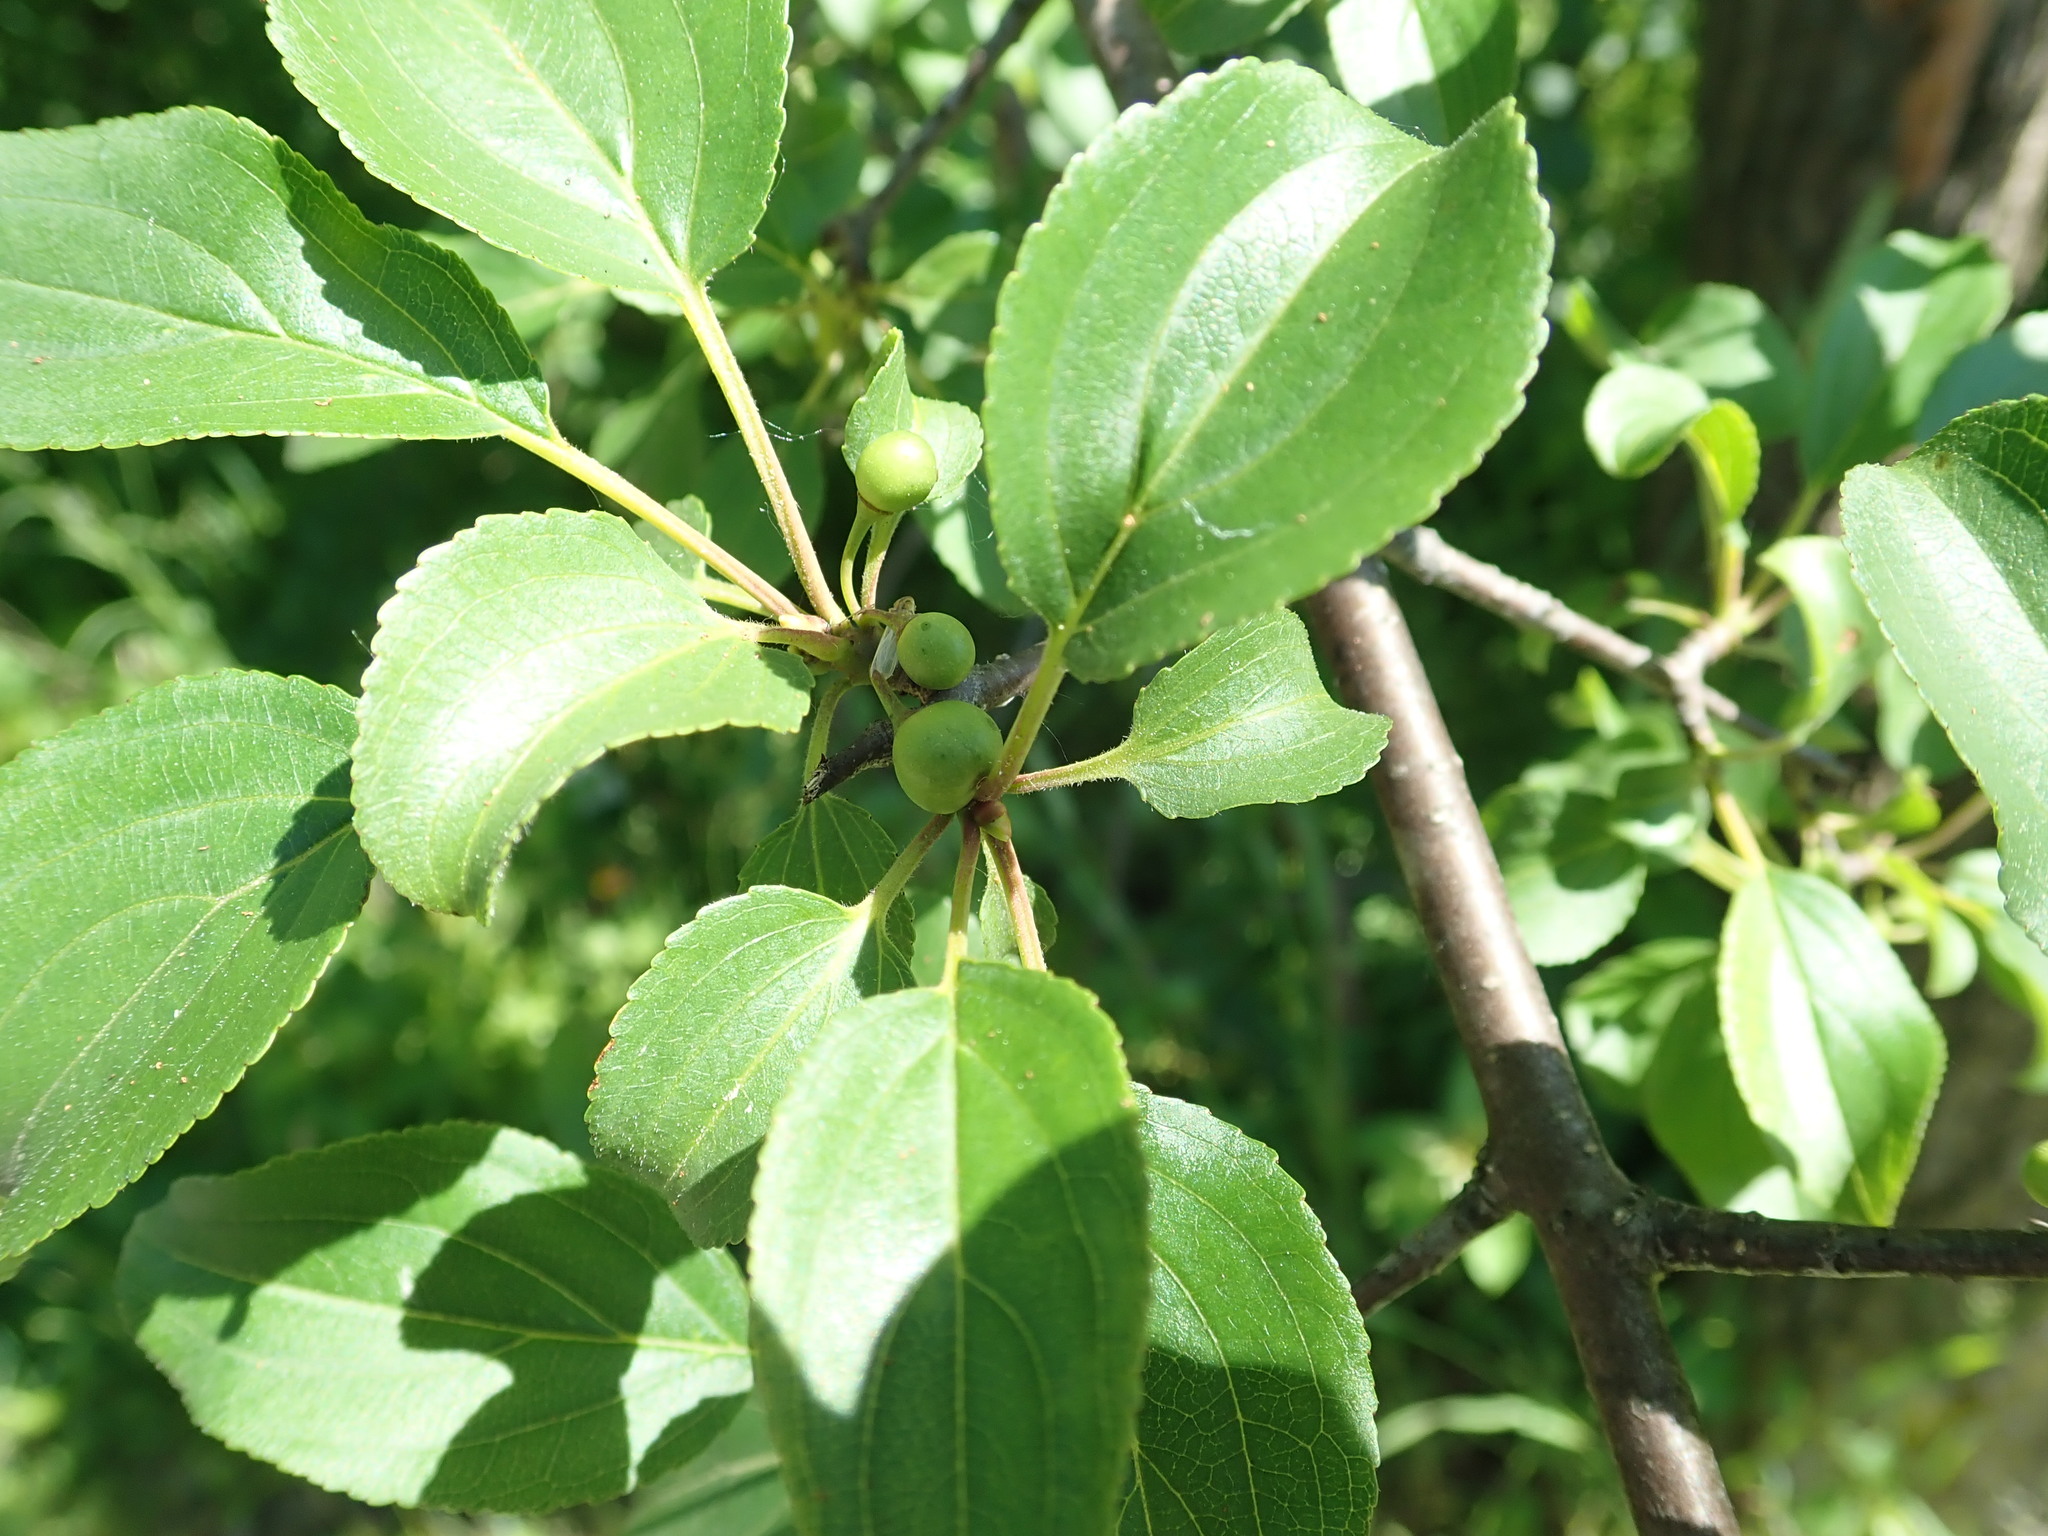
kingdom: Plantae
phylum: Tracheophyta
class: Magnoliopsida
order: Rosales
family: Rhamnaceae
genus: Rhamnus
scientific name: Rhamnus cathartica
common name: Common buckthorn
